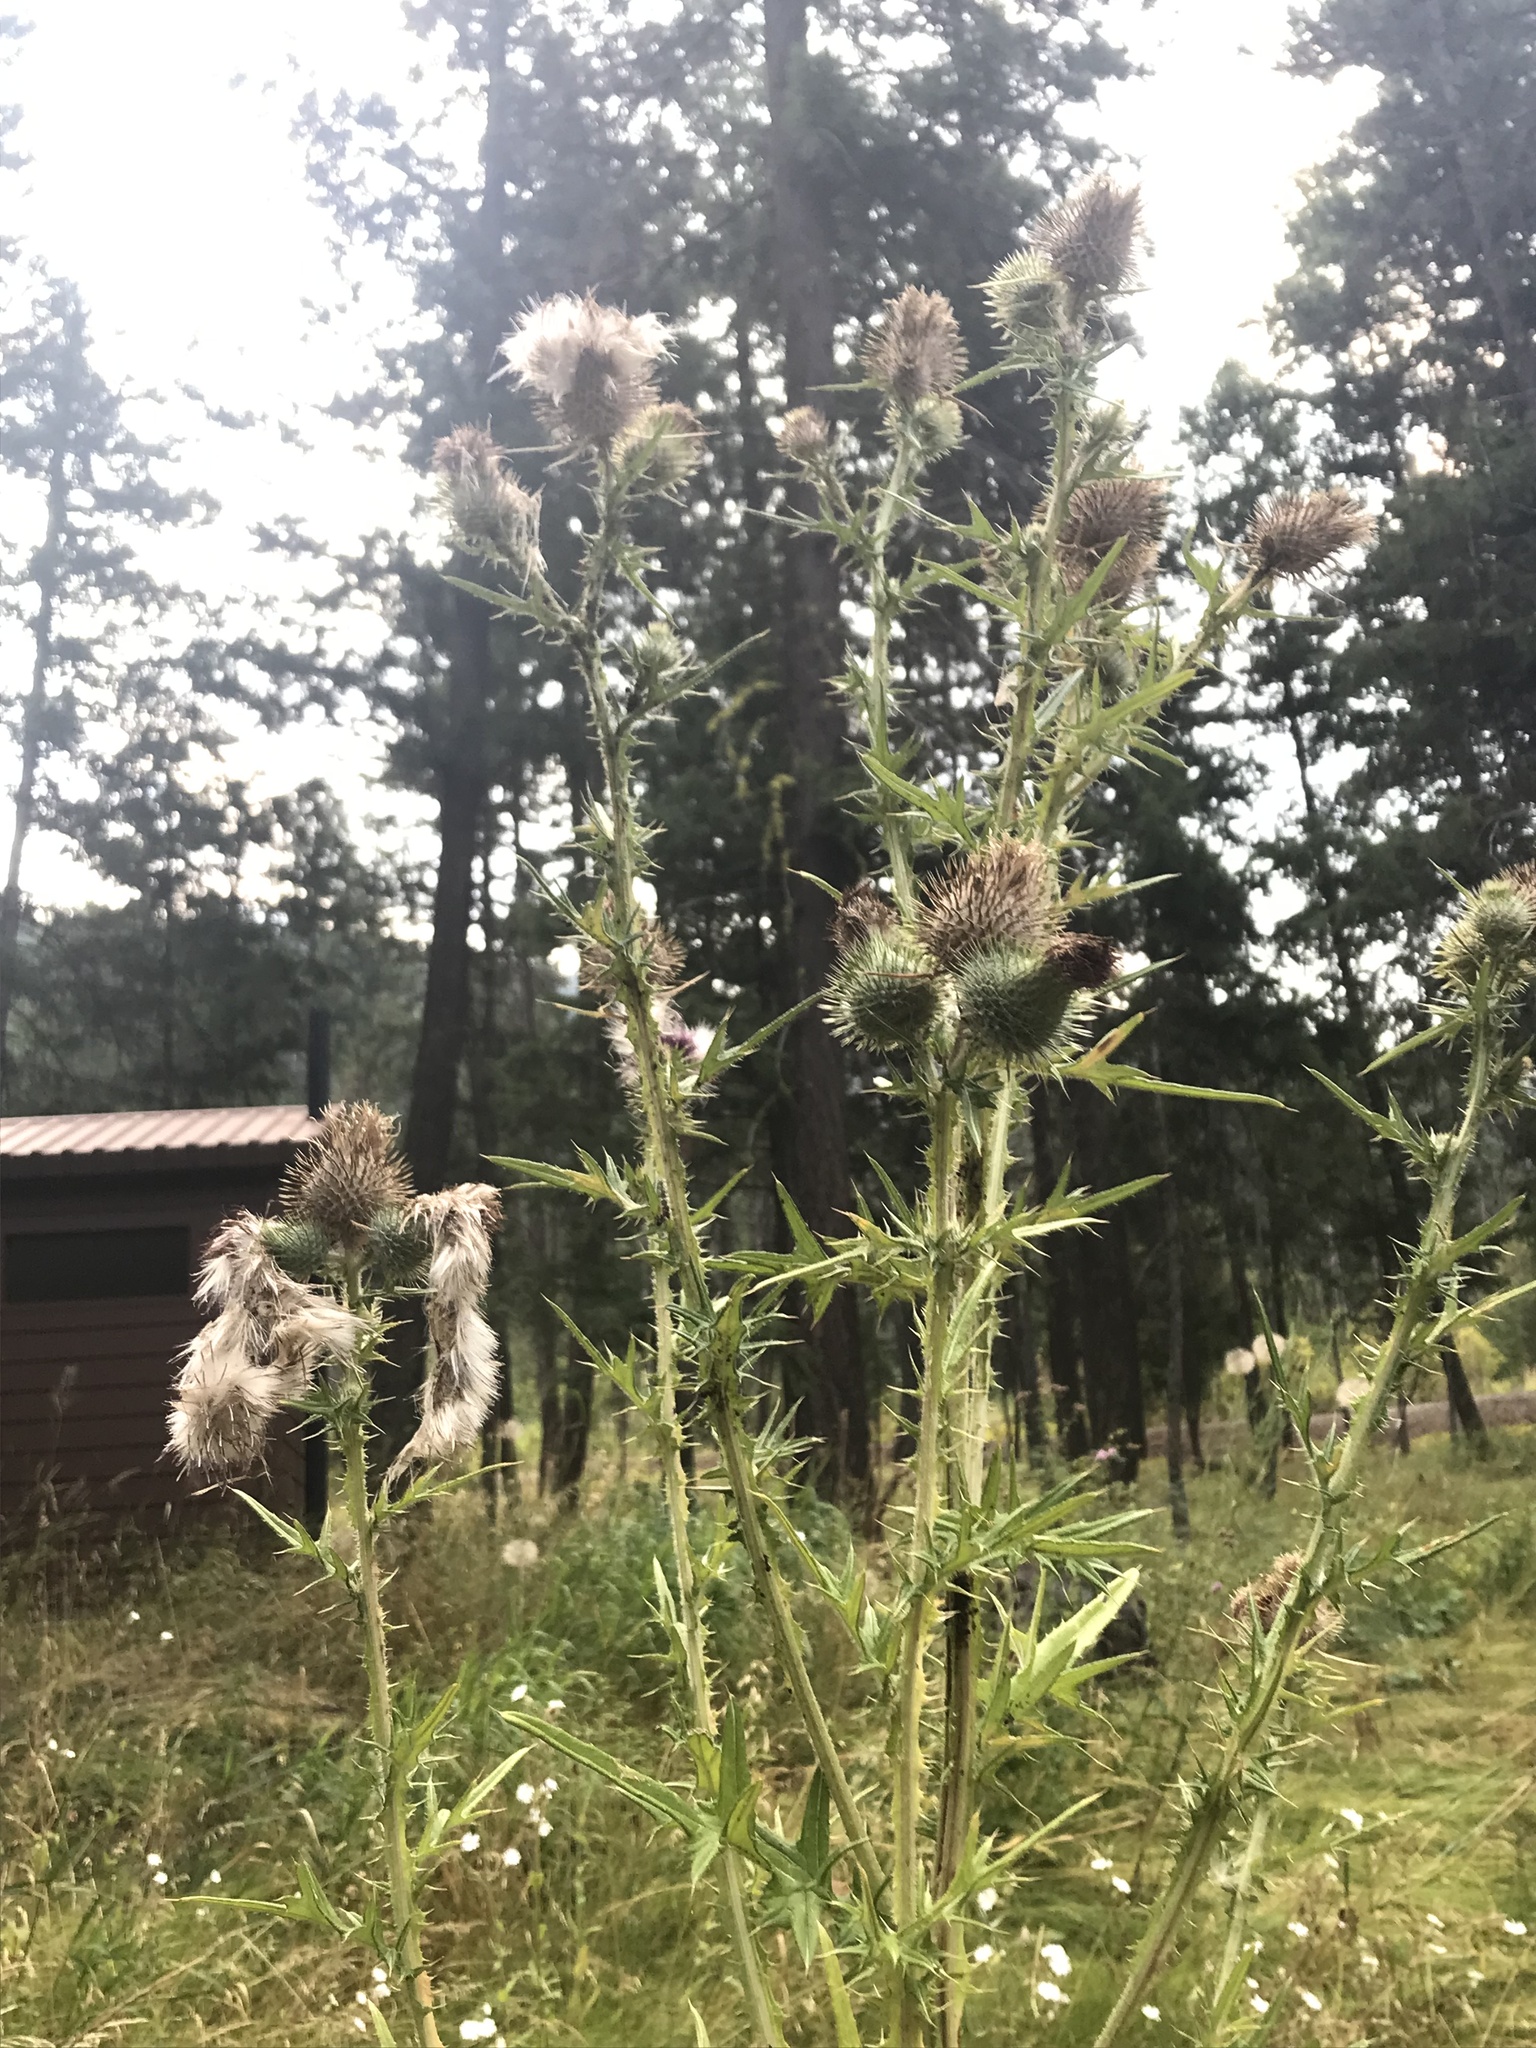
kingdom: Plantae
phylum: Tracheophyta
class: Magnoliopsida
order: Asterales
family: Asteraceae
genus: Cirsium
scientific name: Cirsium vulgare
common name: Bull thistle
